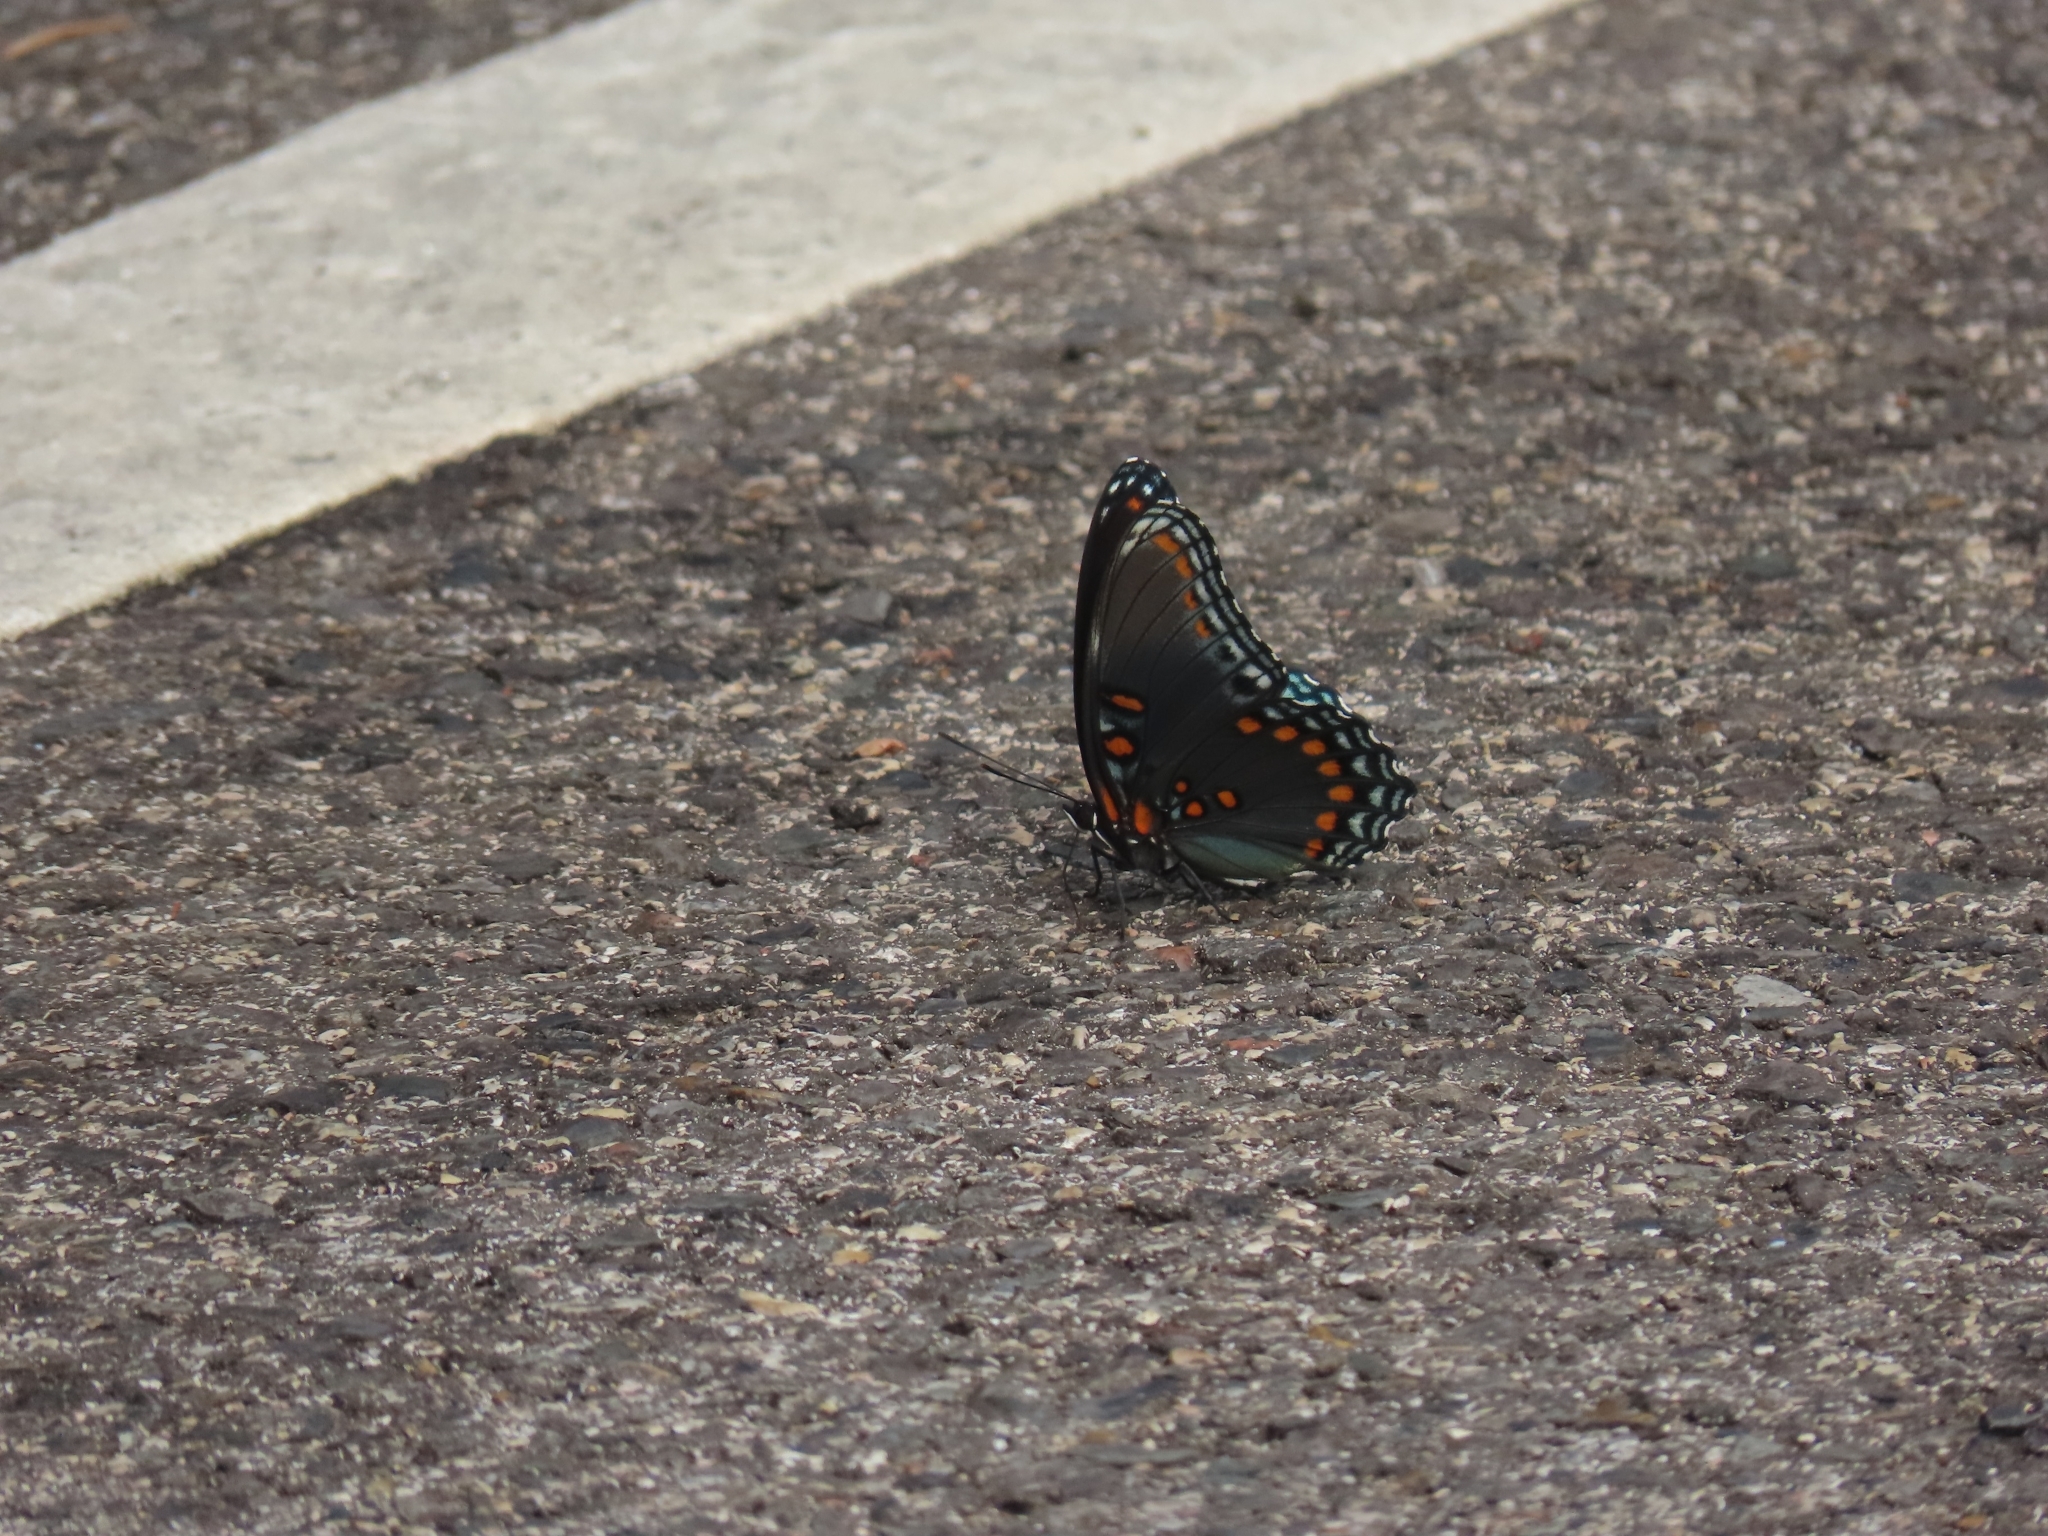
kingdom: Animalia
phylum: Arthropoda
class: Insecta
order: Lepidoptera
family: Nymphalidae
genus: Limenitis
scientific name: Limenitis astyanax
